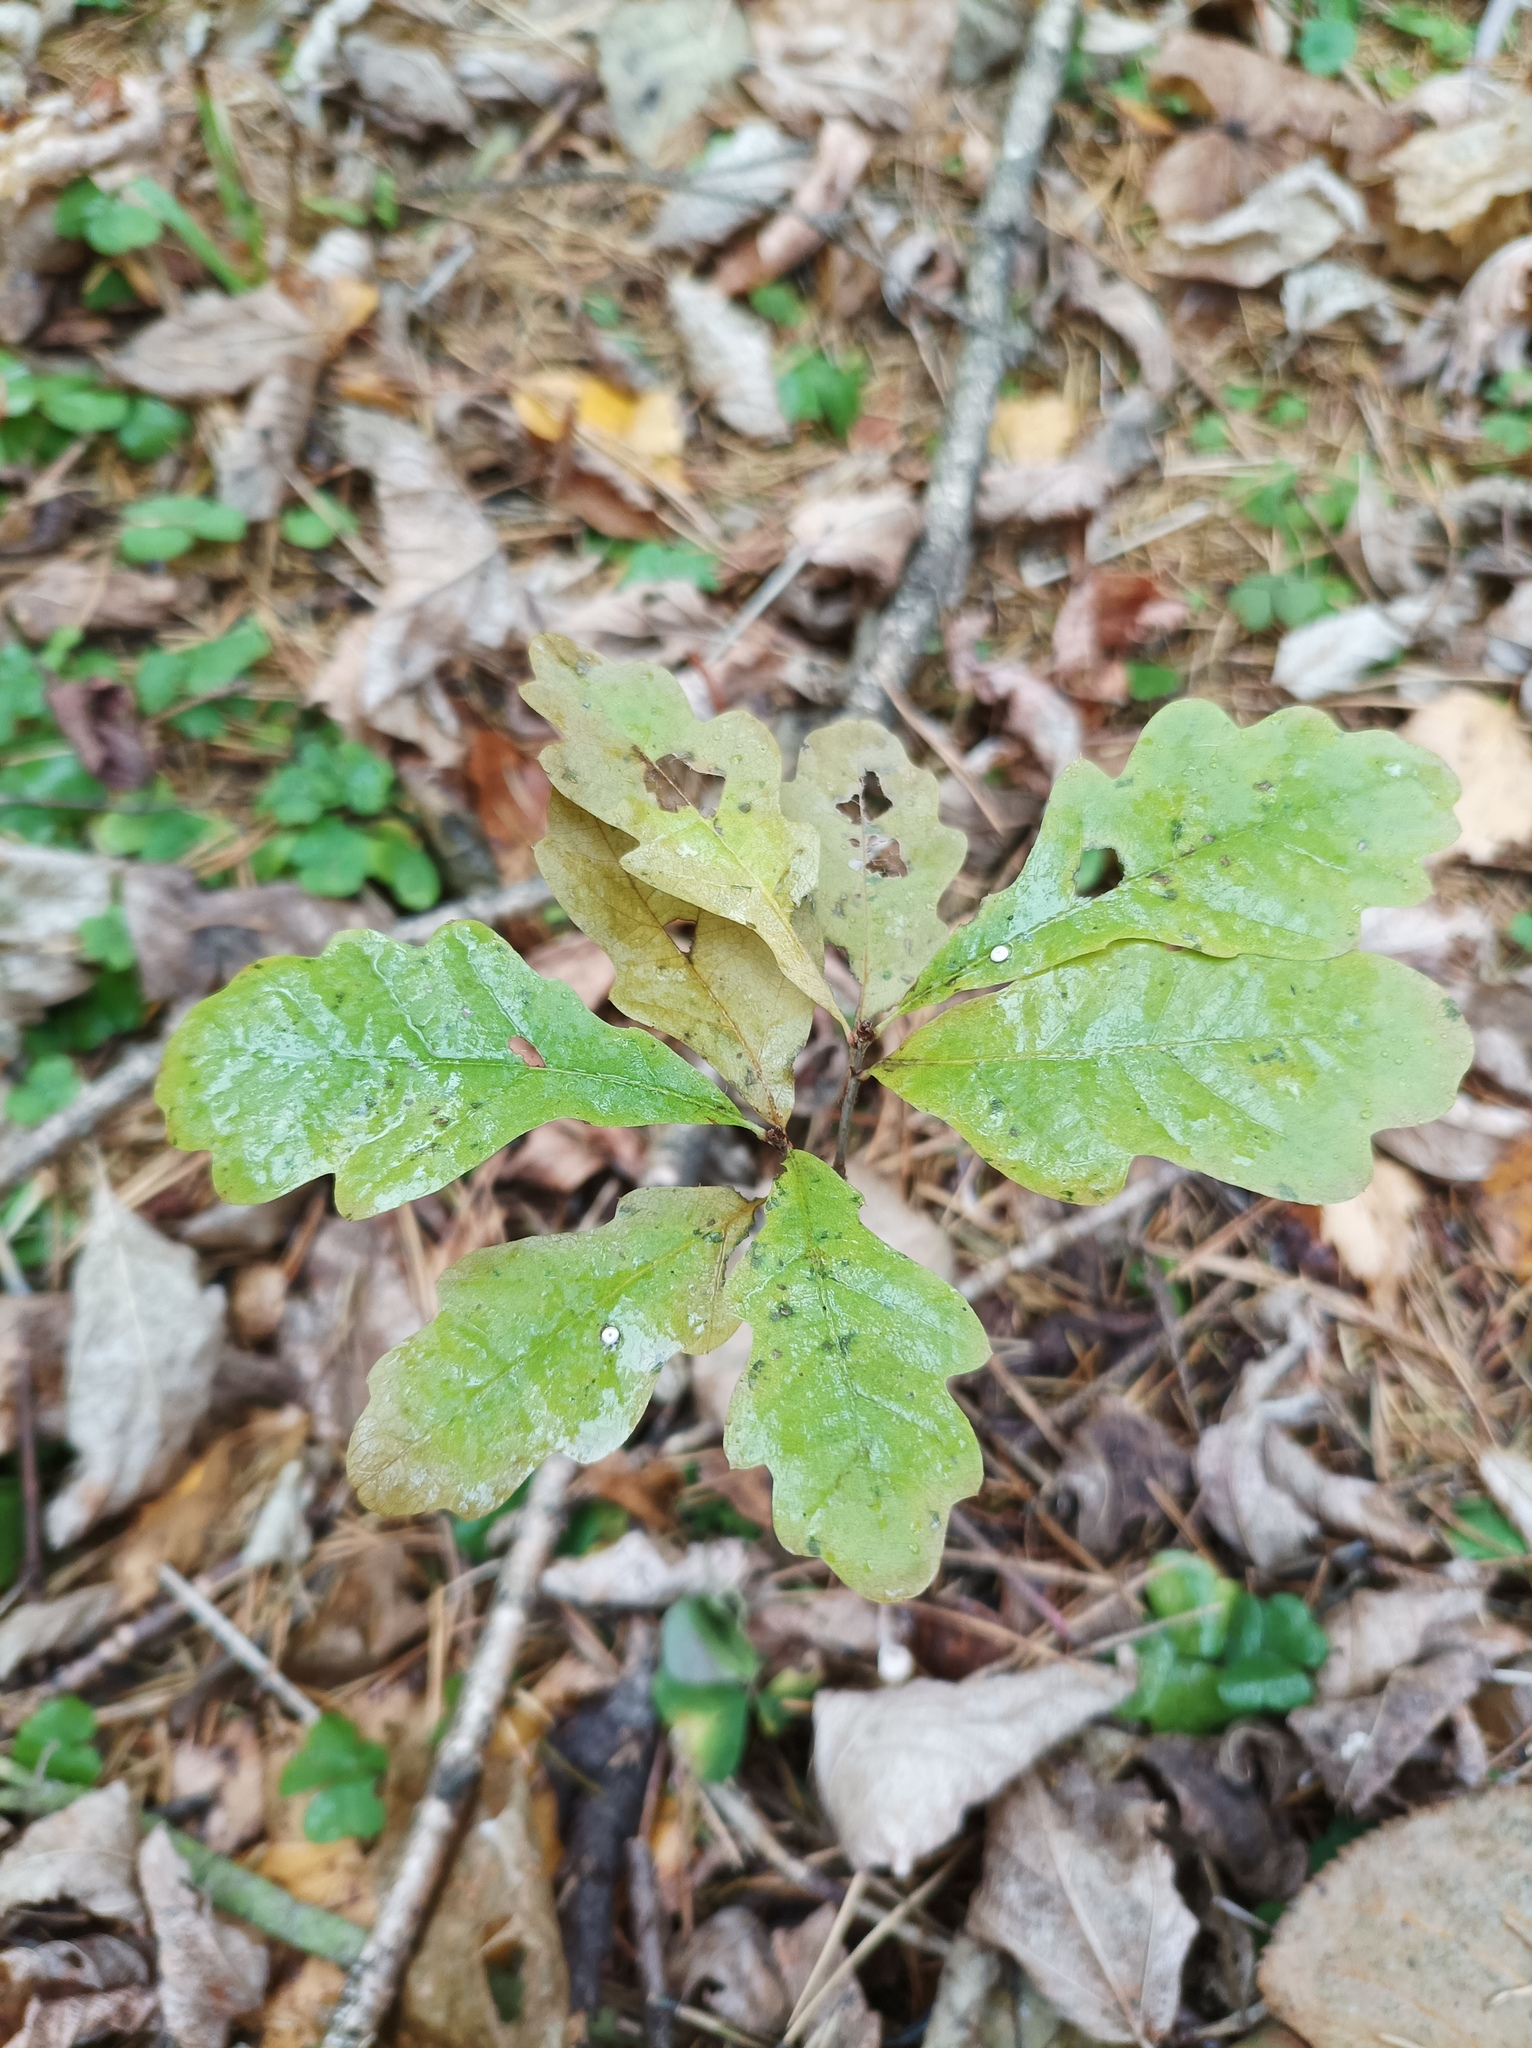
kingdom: Plantae
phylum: Tracheophyta
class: Magnoliopsida
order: Fagales
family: Fagaceae
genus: Quercus
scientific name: Quercus robur
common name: Pedunculate oak
